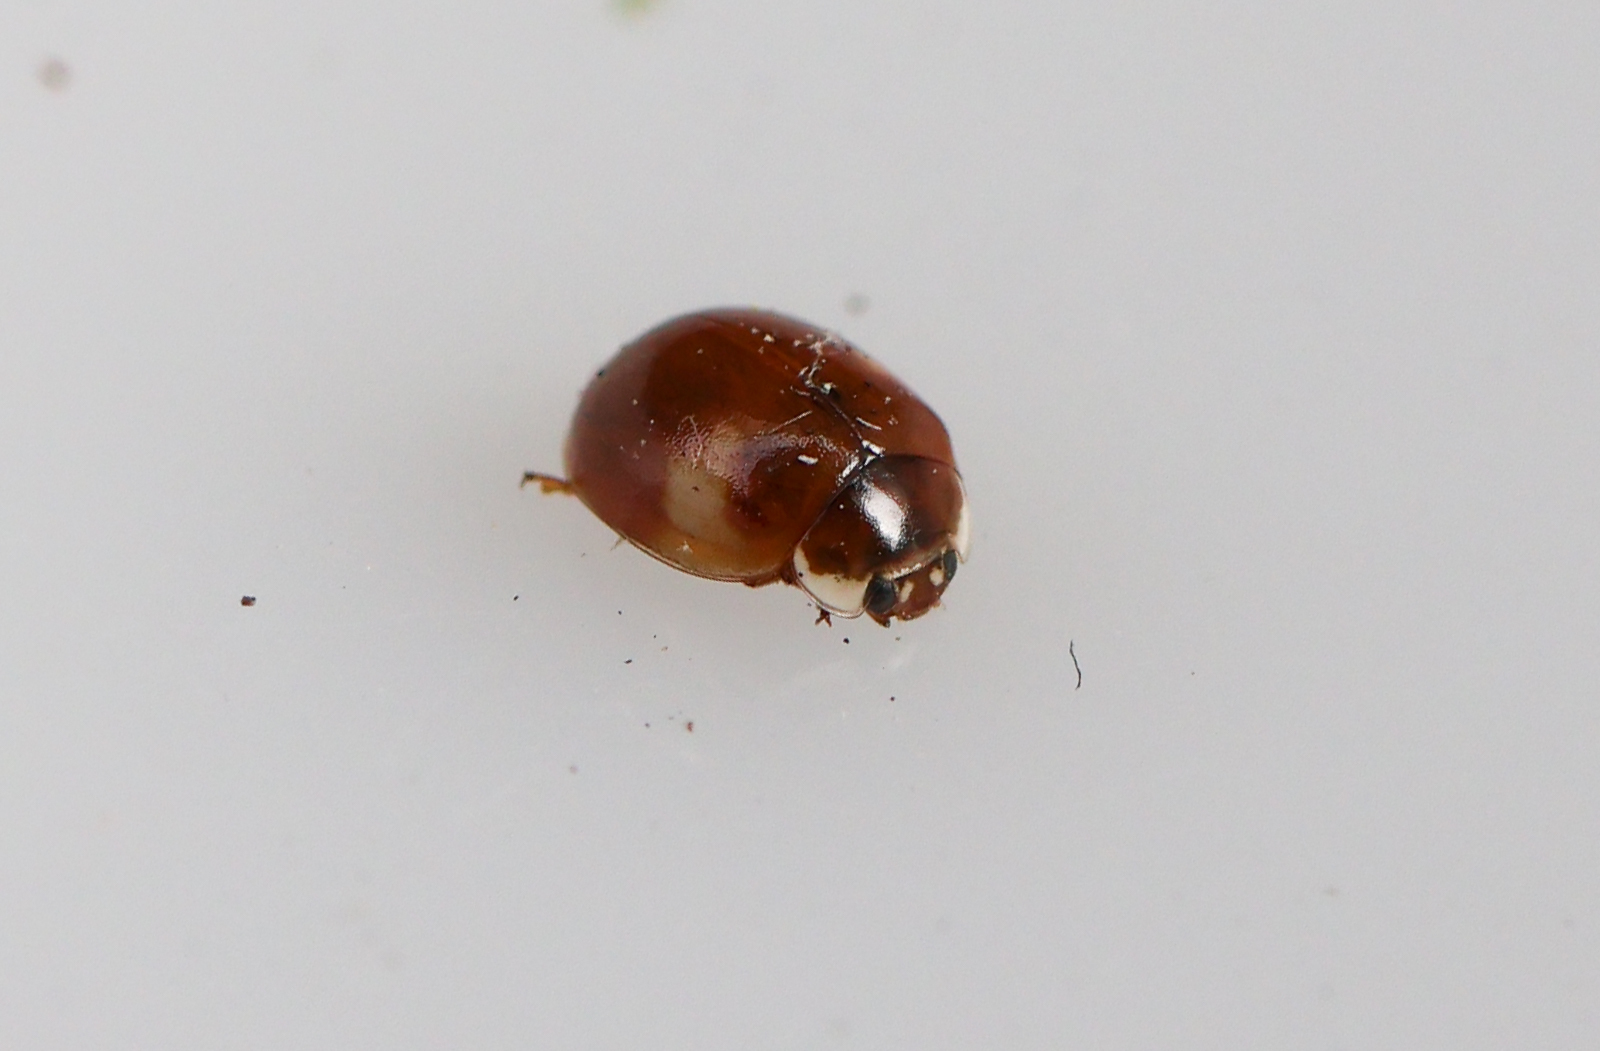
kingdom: Animalia
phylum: Arthropoda
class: Insecta
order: Coleoptera
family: Coccinellidae
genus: Adalia
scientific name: Adalia decempunctata
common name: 10-spot ladybird
